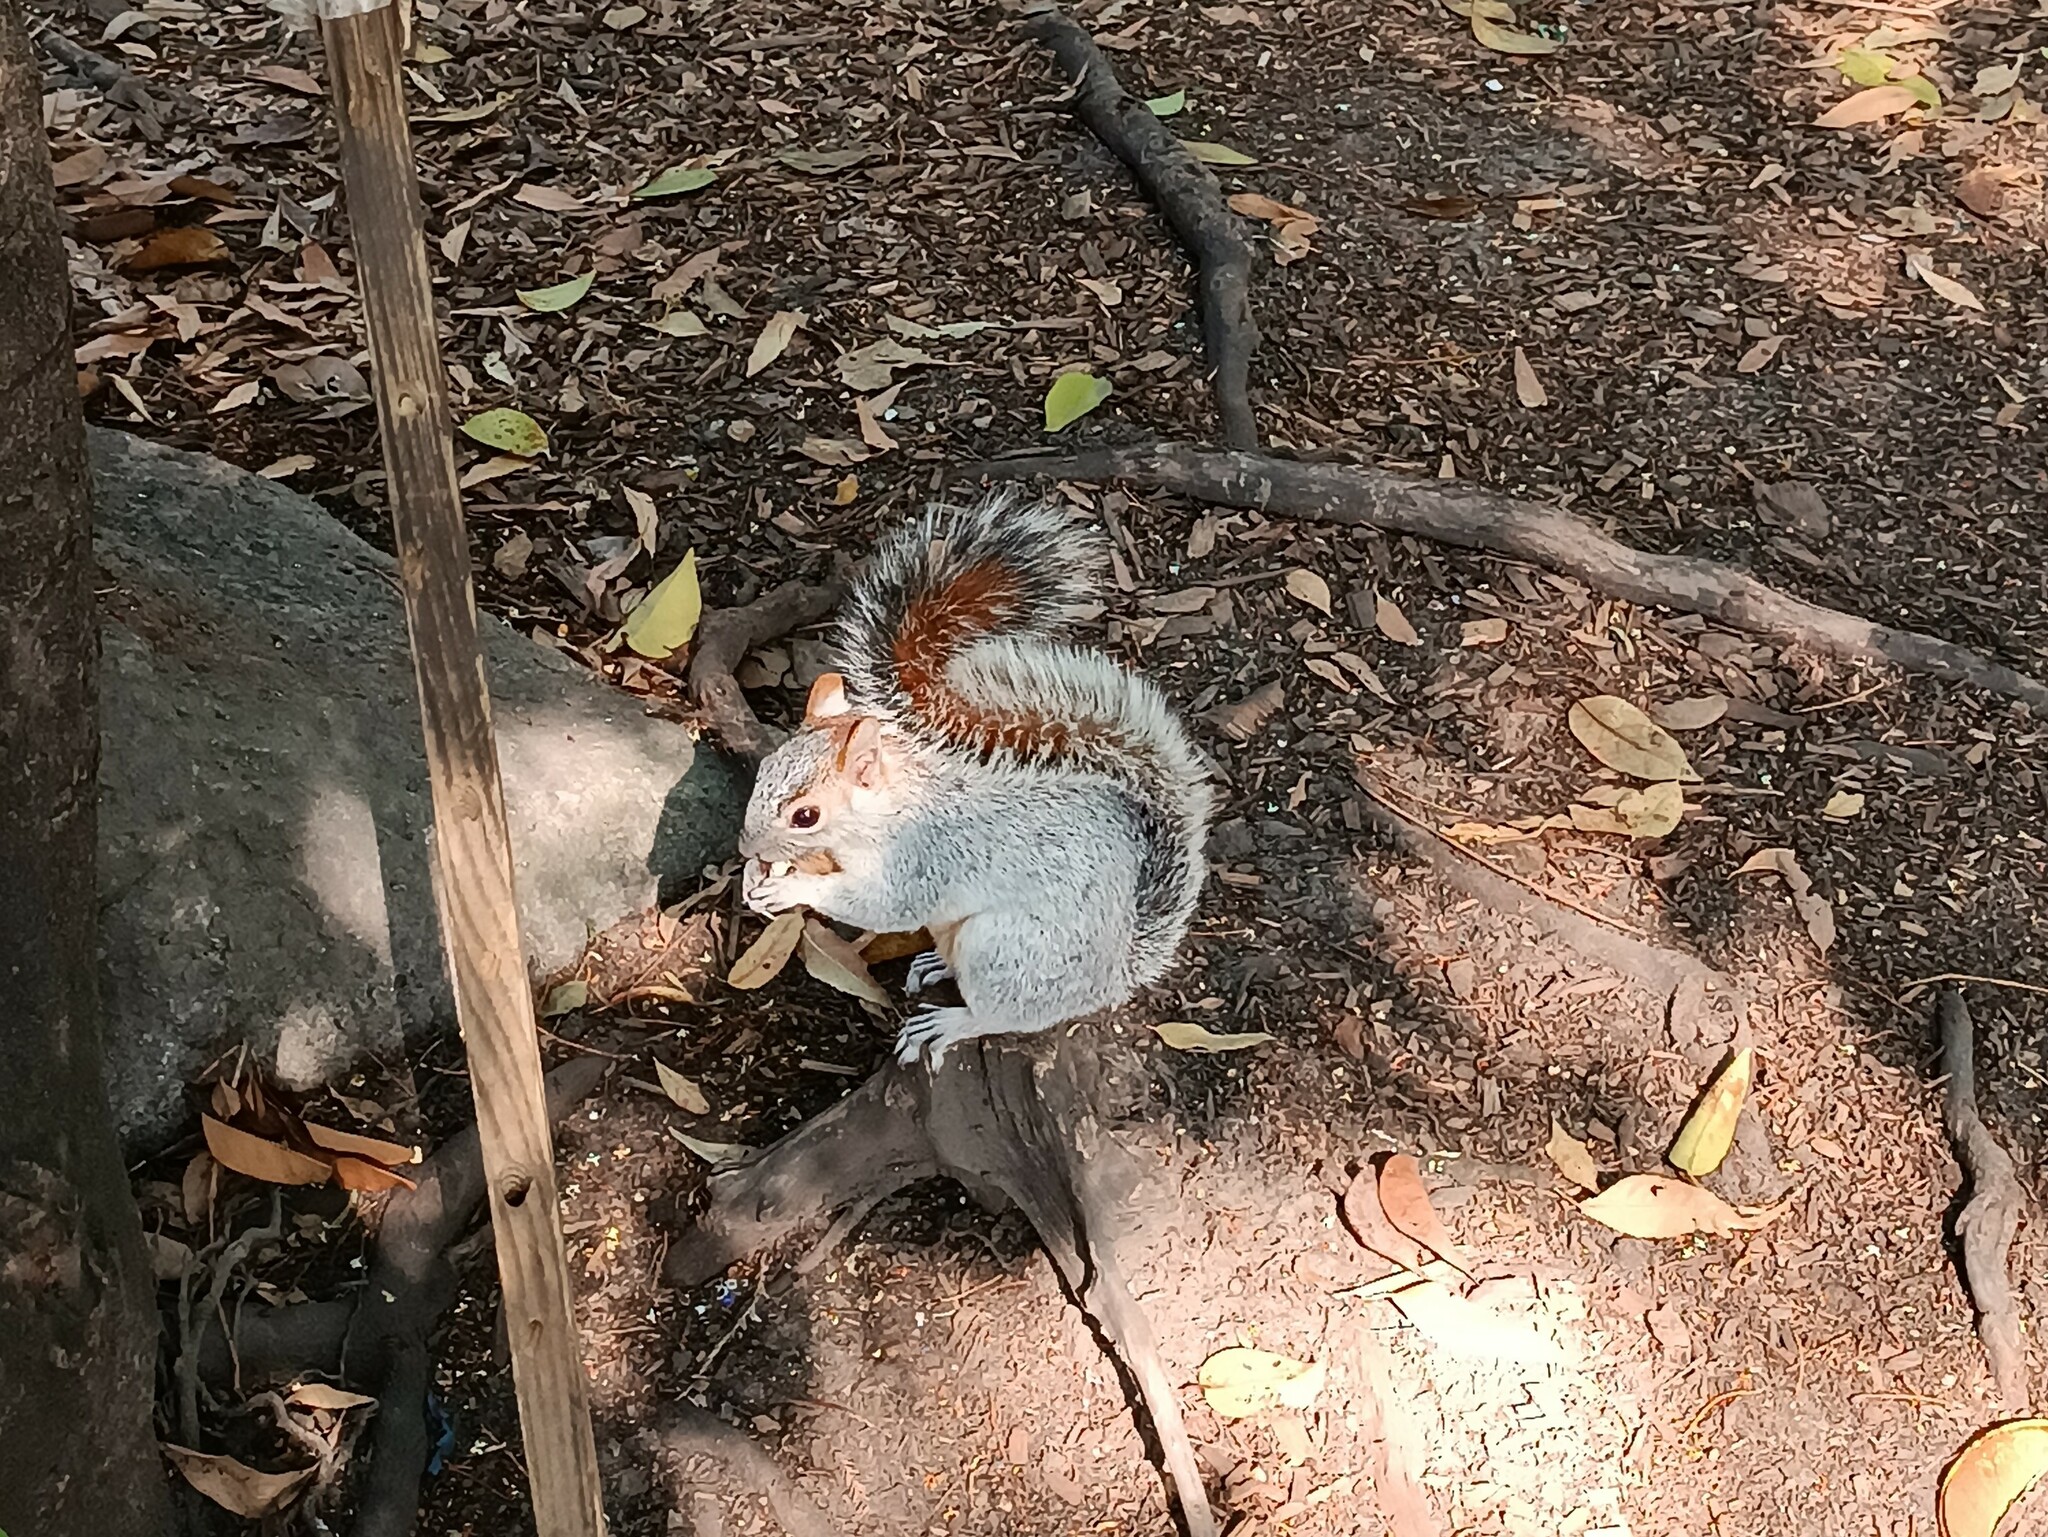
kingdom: Animalia
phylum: Chordata
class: Mammalia
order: Rodentia
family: Sciuridae
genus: Sciurus
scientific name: Sciurus aureogaster
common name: Red-bellied squirrel
